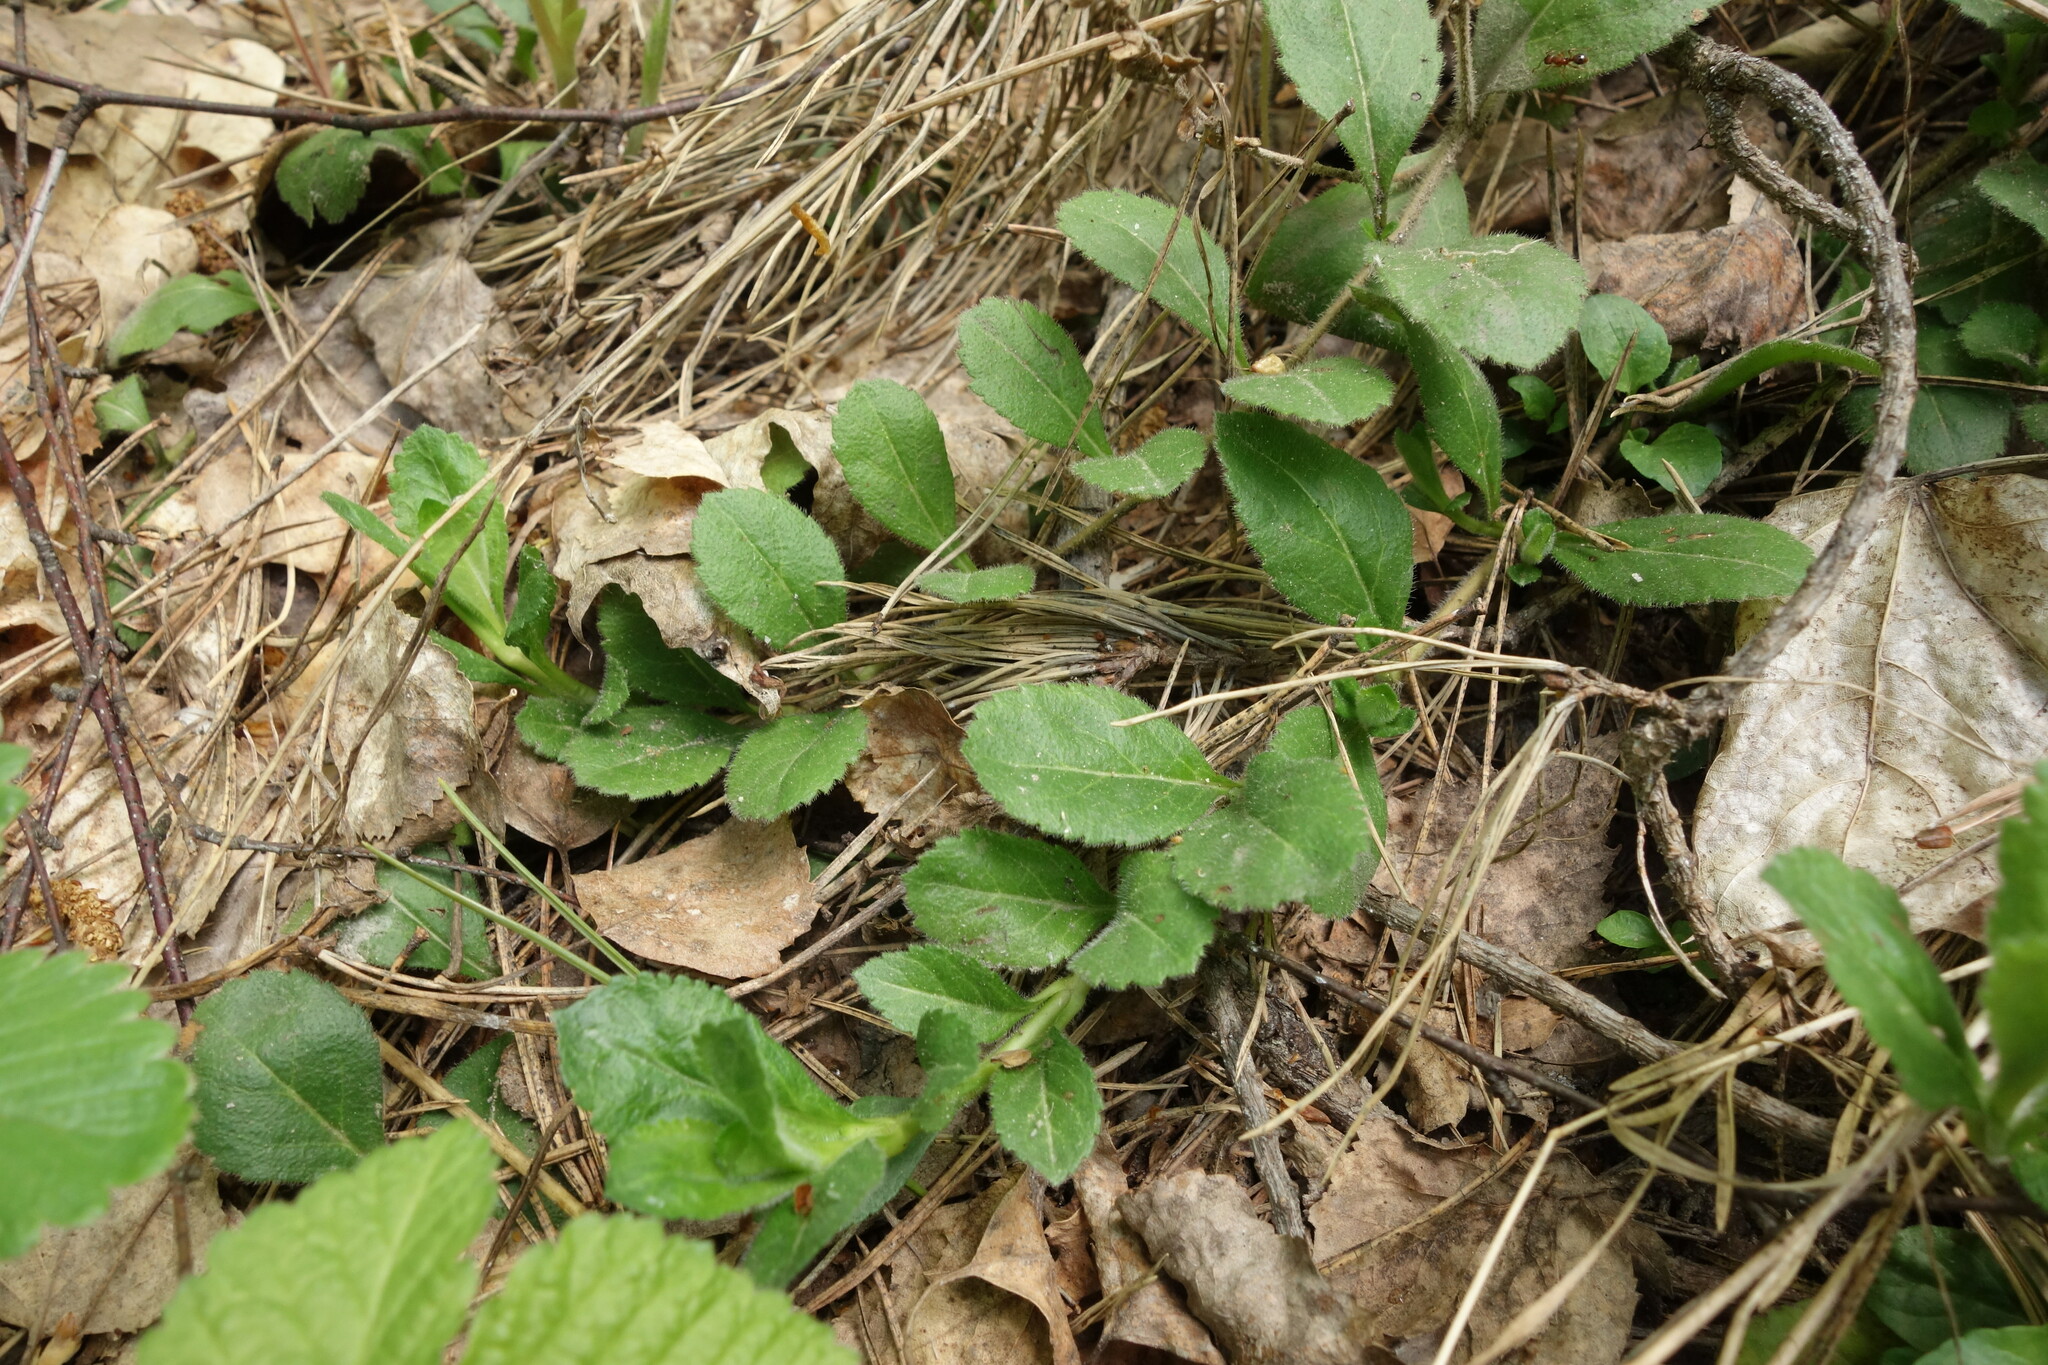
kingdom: Plantae
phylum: Tracheophyta
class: Magnoliopsida
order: Lamiales
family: Plantaginaceae
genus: Veronica
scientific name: Veronica officinalis
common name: Common speedwell
